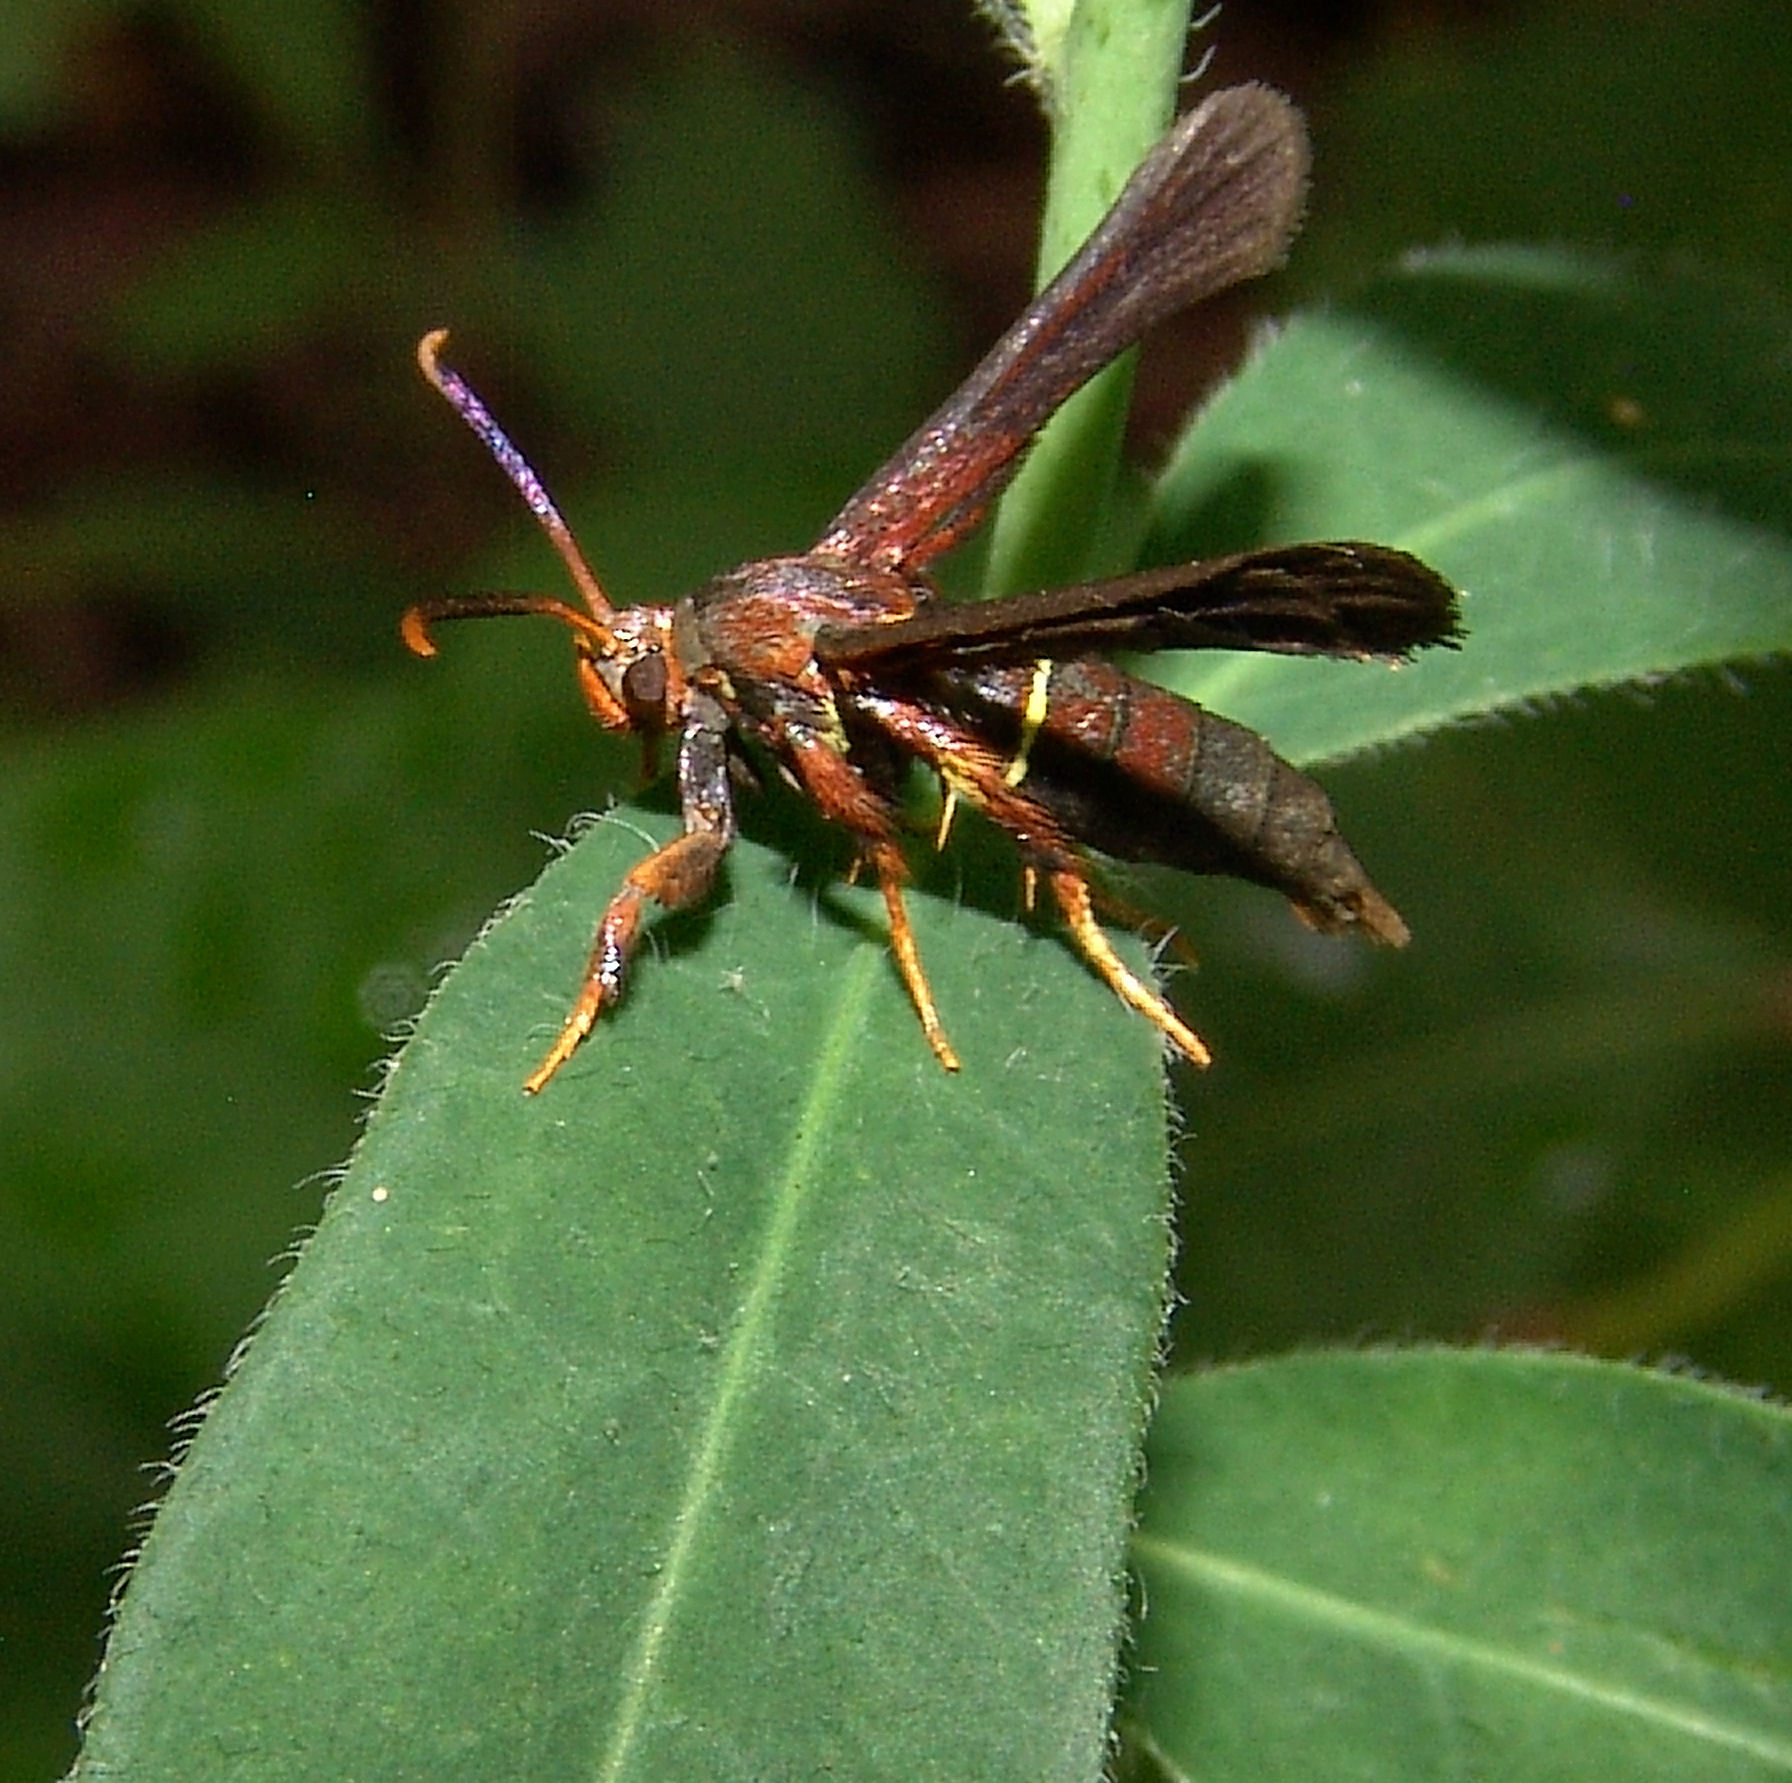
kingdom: Animalia
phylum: Arthropoda
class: Insecta
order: Lepidoptera
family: Sesiidae
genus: Vitacea
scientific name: Vitacea polistiformis
